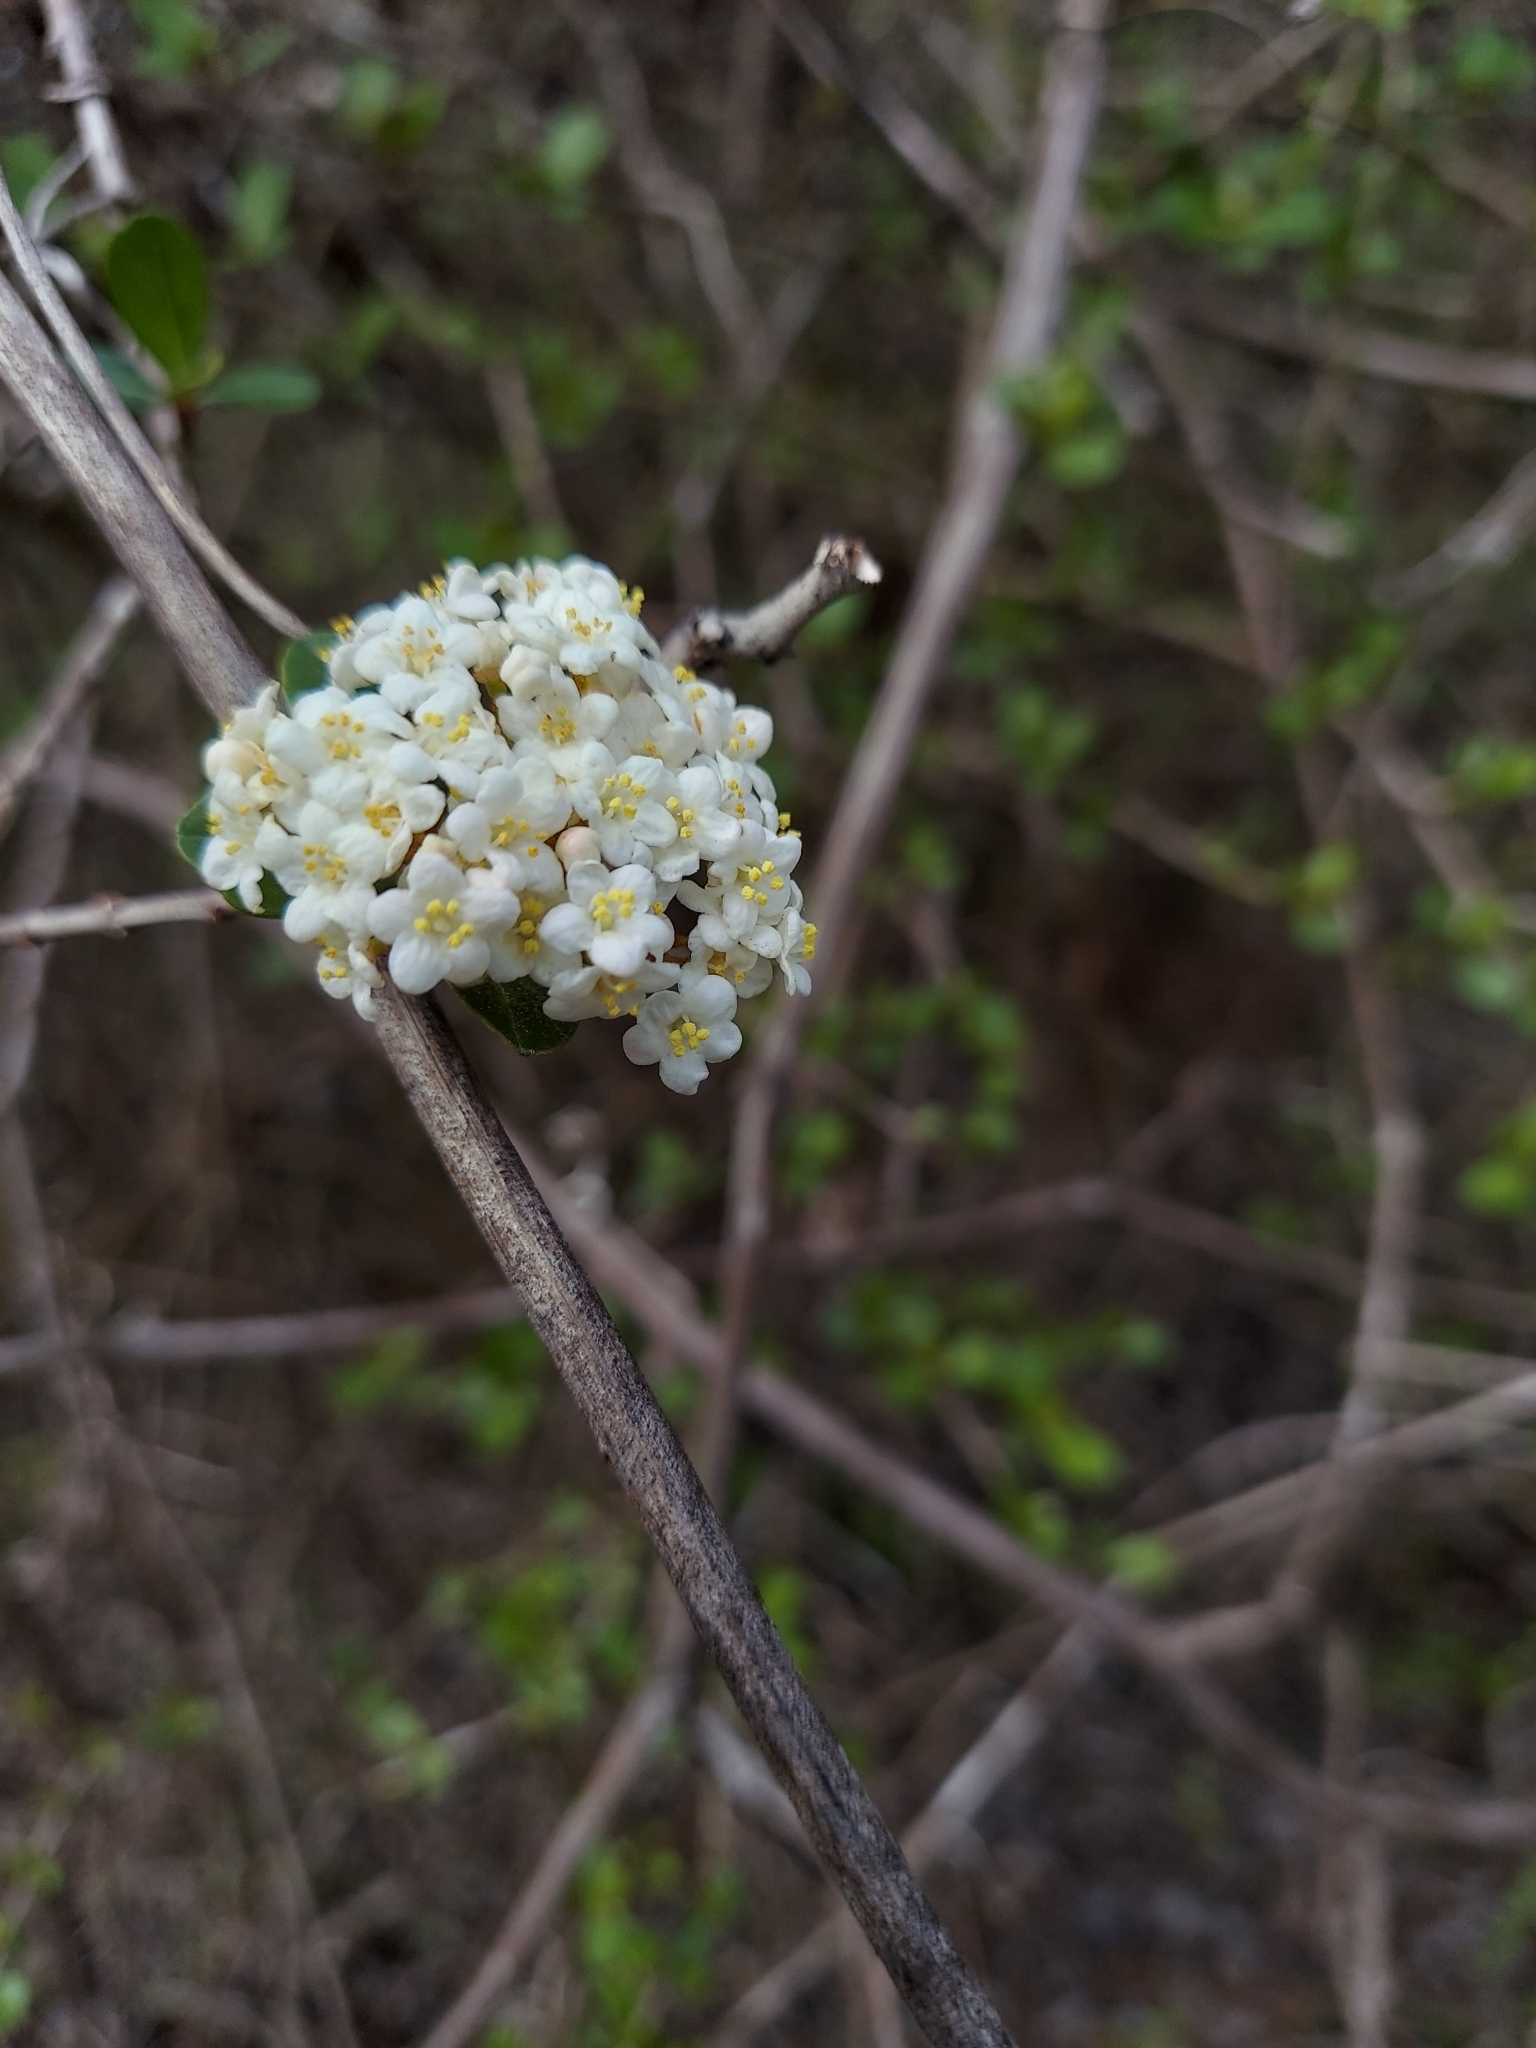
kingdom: Plantae
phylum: Tracheophyta
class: Magnoliopsida
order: Dipsacales
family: Viburnaceae
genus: Viburnum
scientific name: Viburnum obovatum
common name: Walter's viburnum
